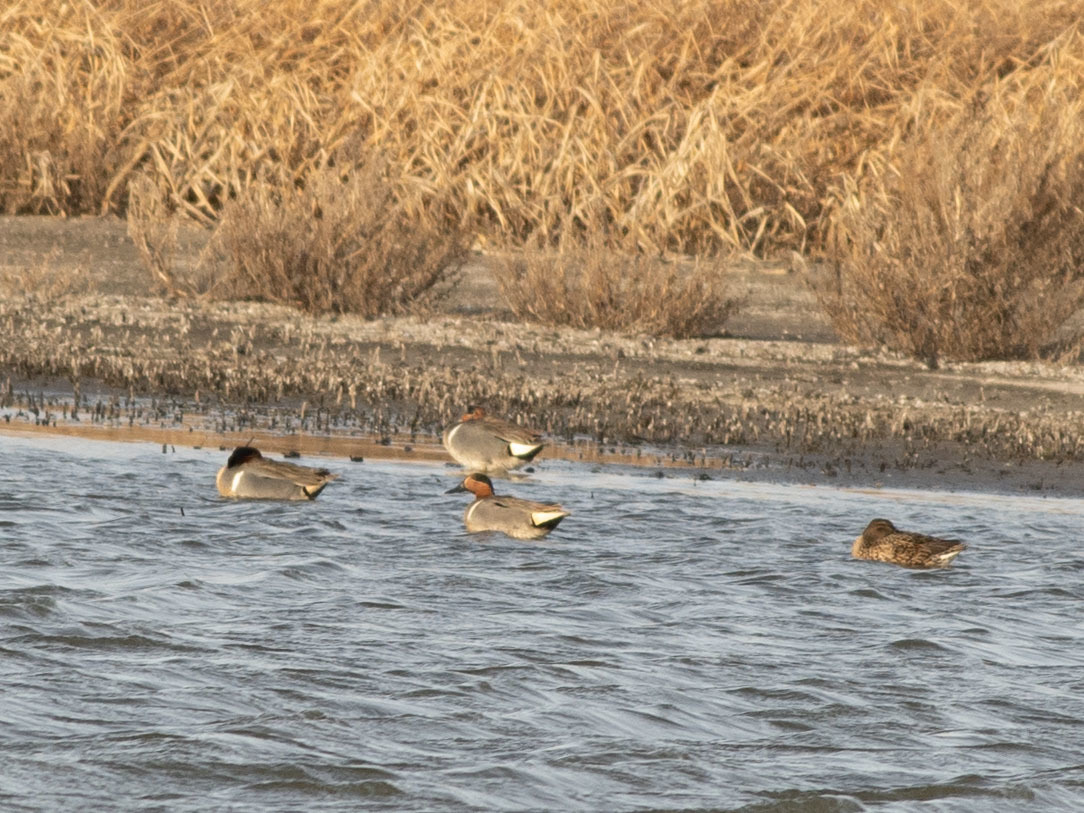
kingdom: Animalia
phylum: Chordata
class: Aves
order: Anseriformes
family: Anatidae
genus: Anas
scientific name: Anas crecca
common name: Eurasian teal
